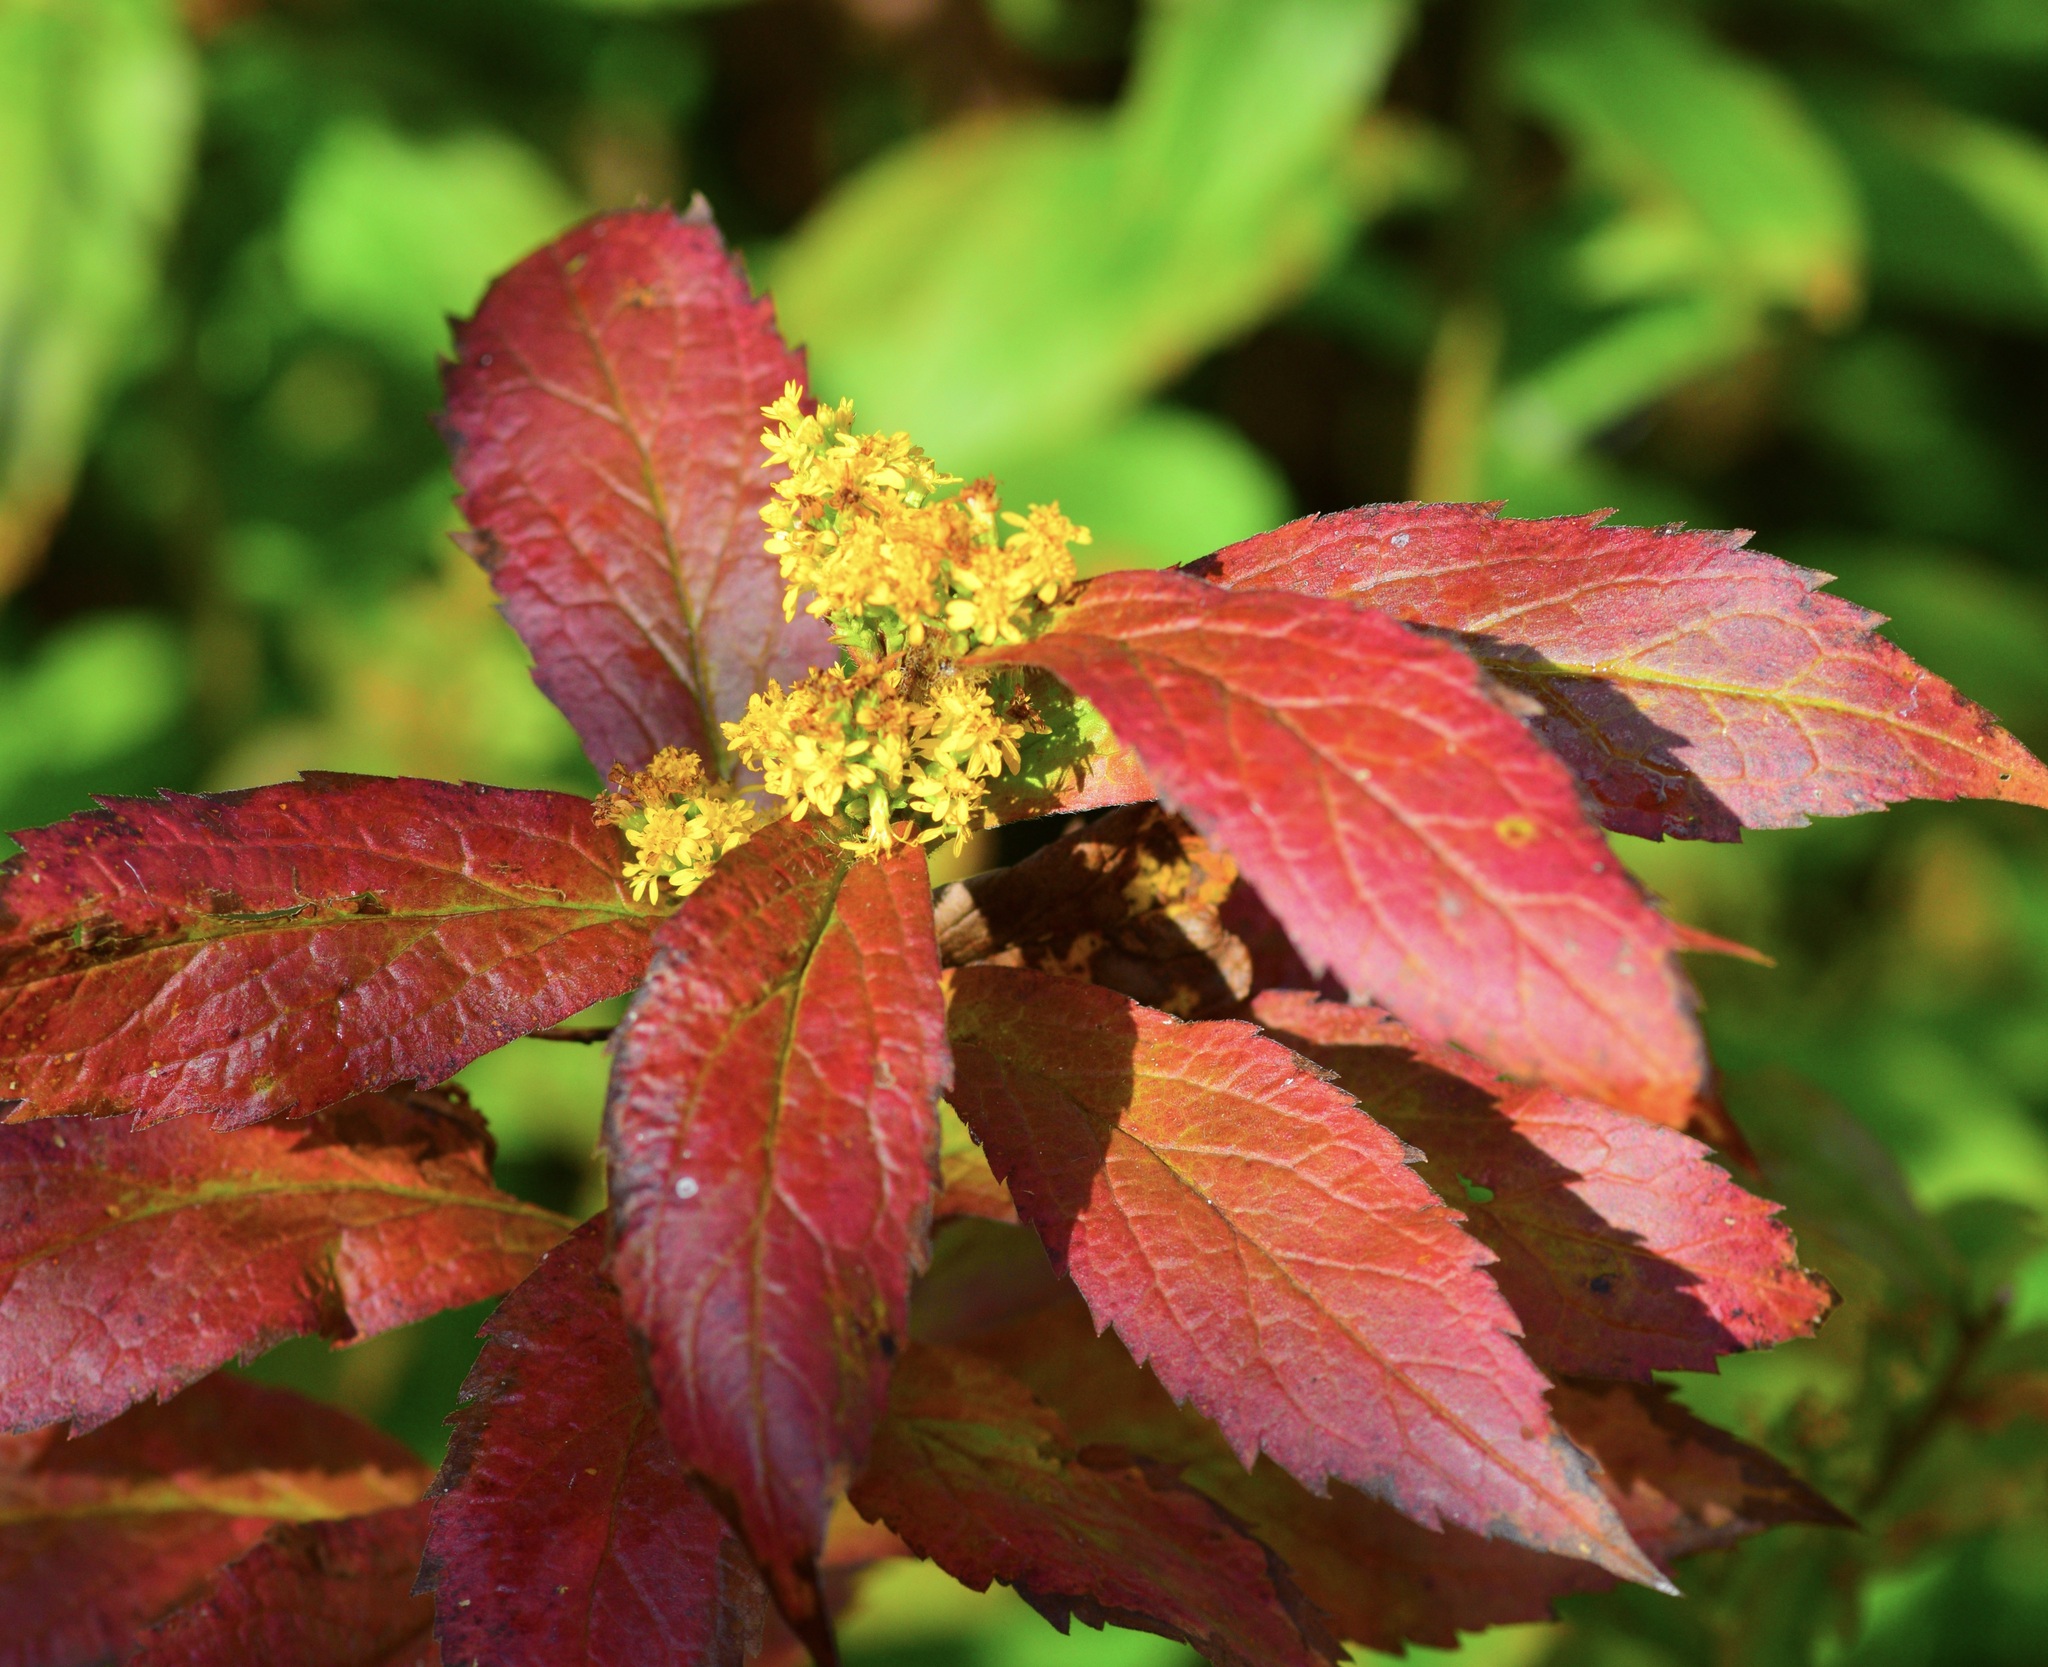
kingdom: Plantae
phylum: Tracheophyta
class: Magnoliopsida
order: Asterales
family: Asteraceae
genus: Solidago
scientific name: Solidago rugosa
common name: Rough-stemmed goldenrod
